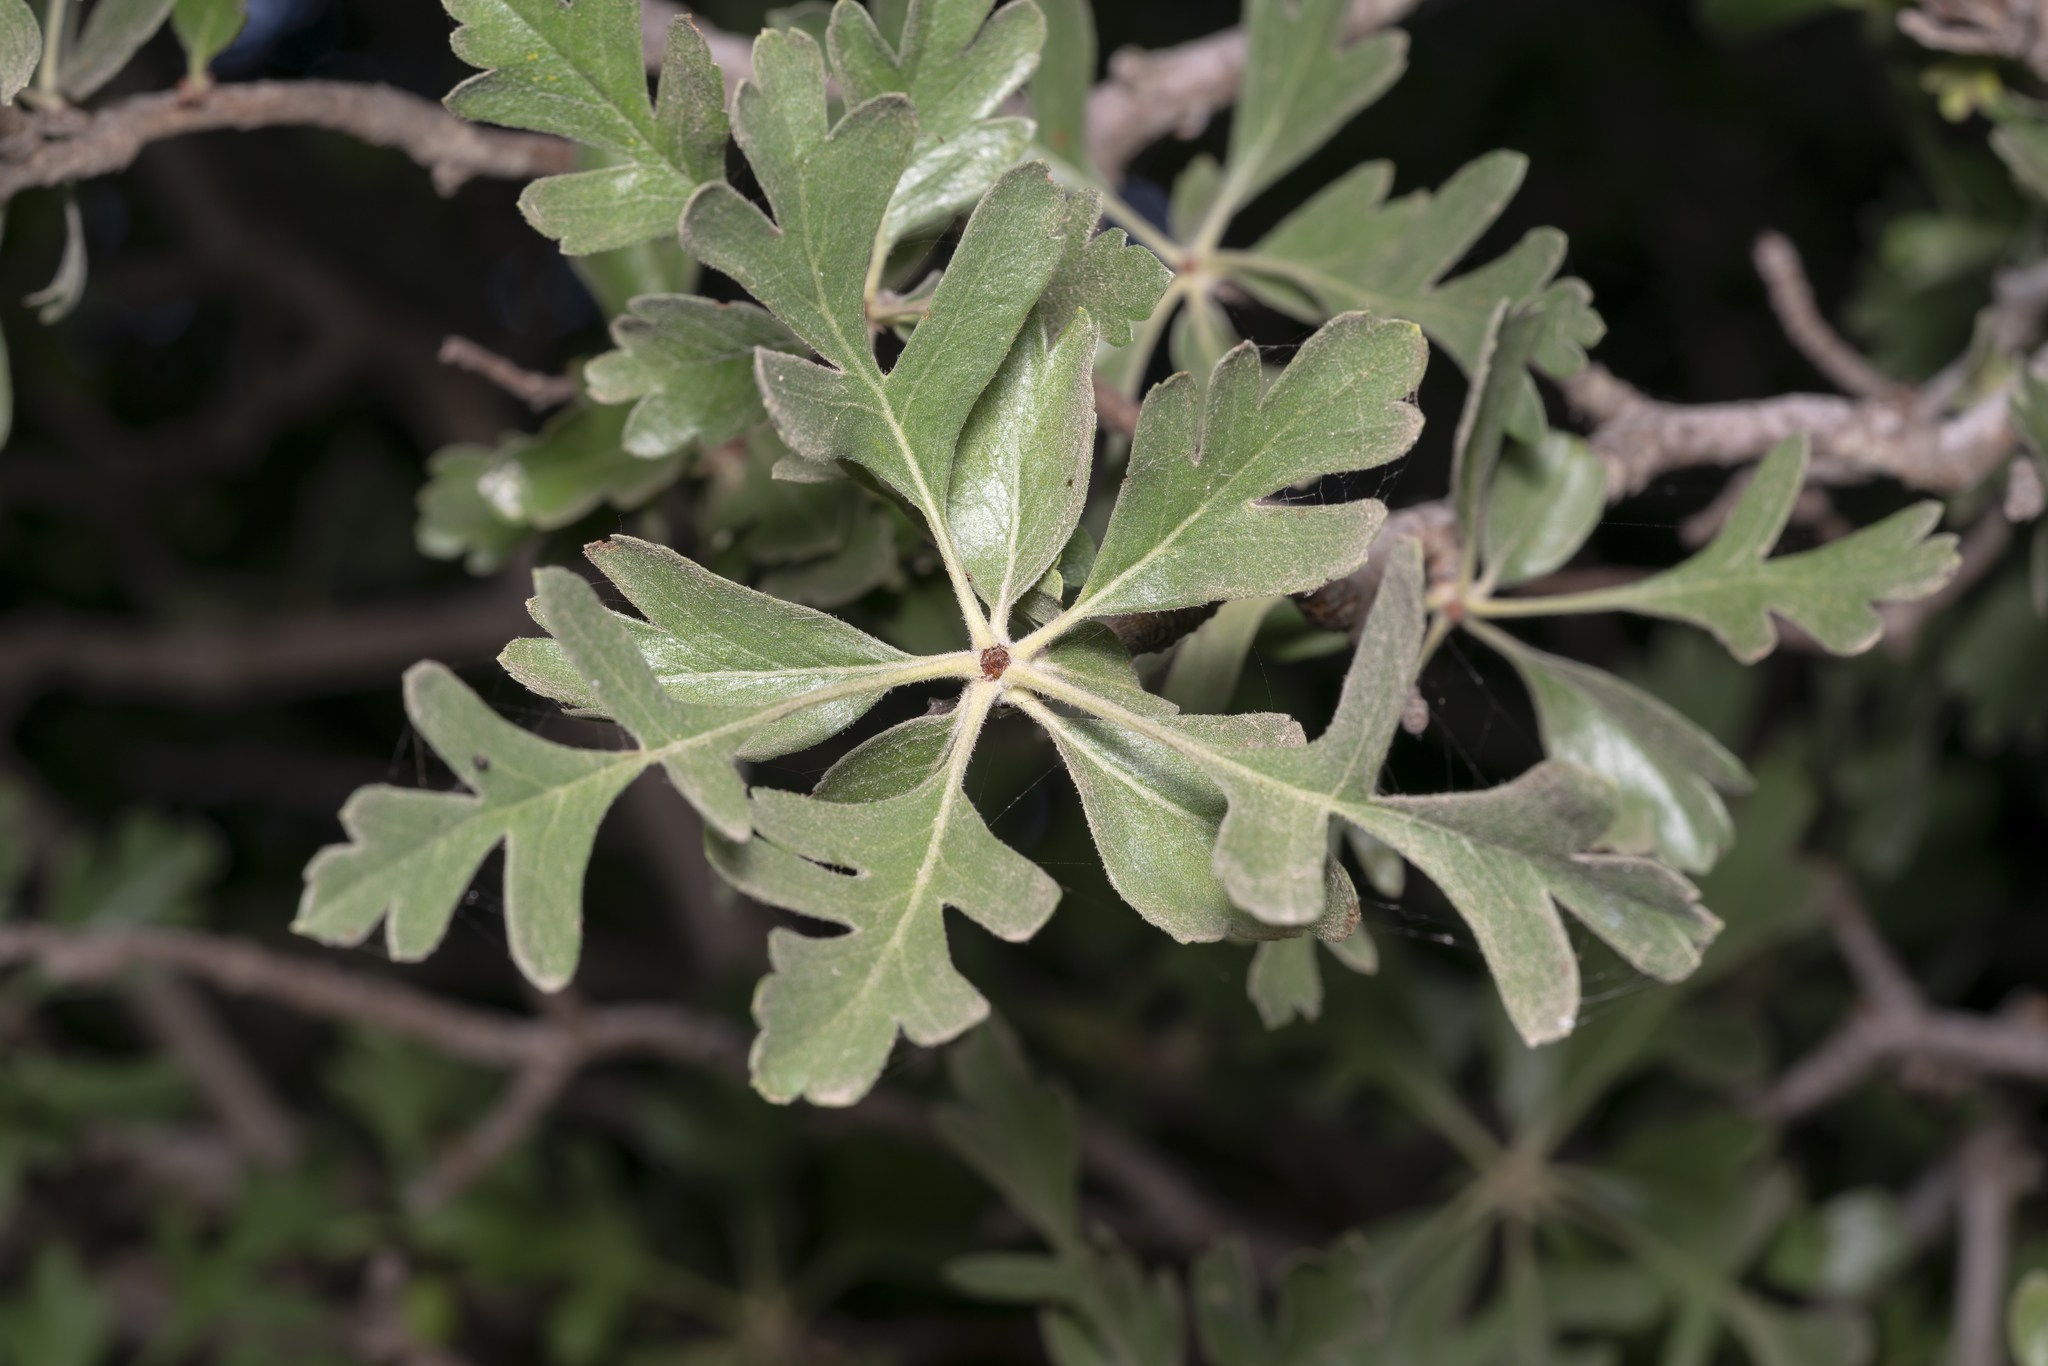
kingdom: Plantae
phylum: Tracheophyta
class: Magnoliopsida
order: Rosales
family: Rosaceae
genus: Crataegus
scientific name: Crataegus azarolus
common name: Azarole
